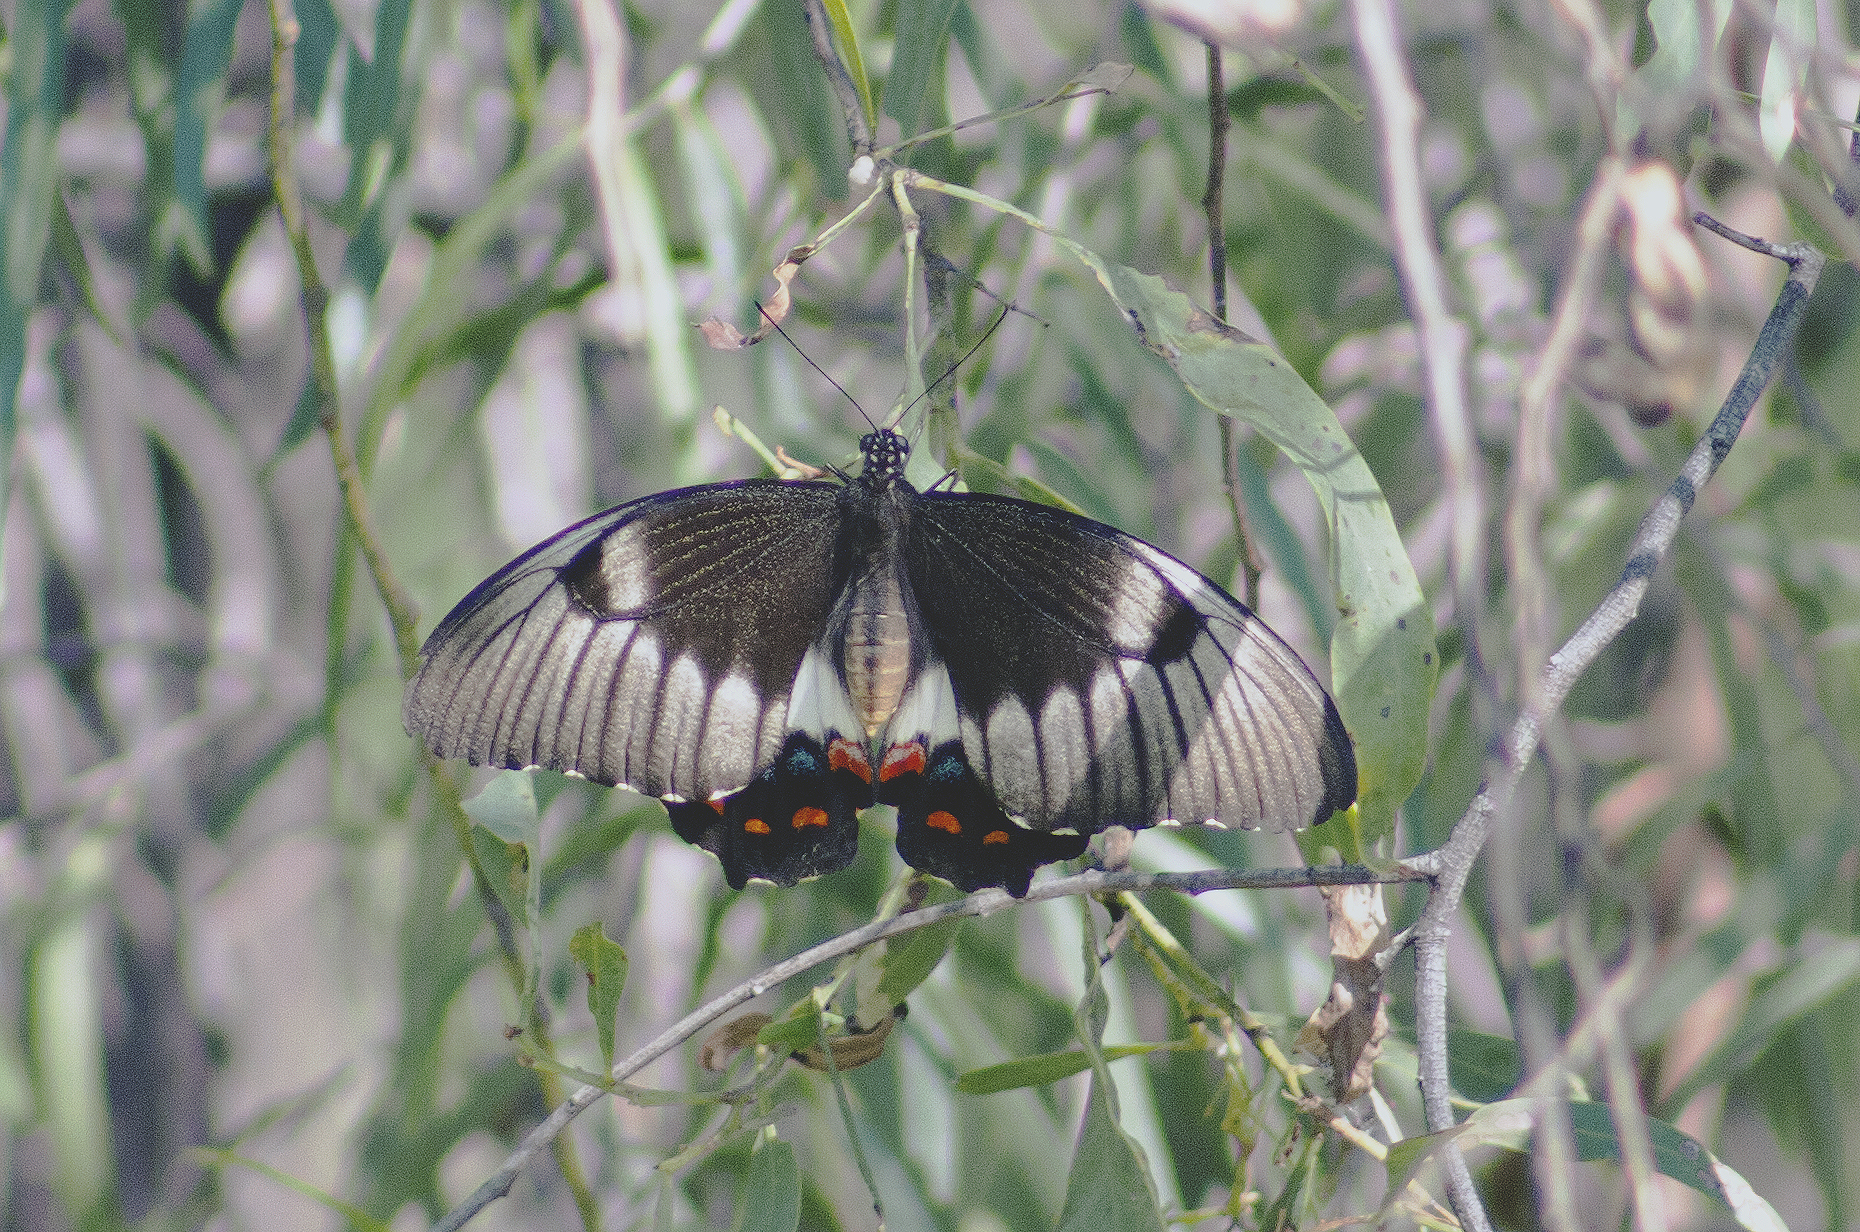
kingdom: Animalia
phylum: Arthropoda
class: Insecta
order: Lepidoptera
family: Papilionidae
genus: Papilio
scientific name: Papilio aegeus
